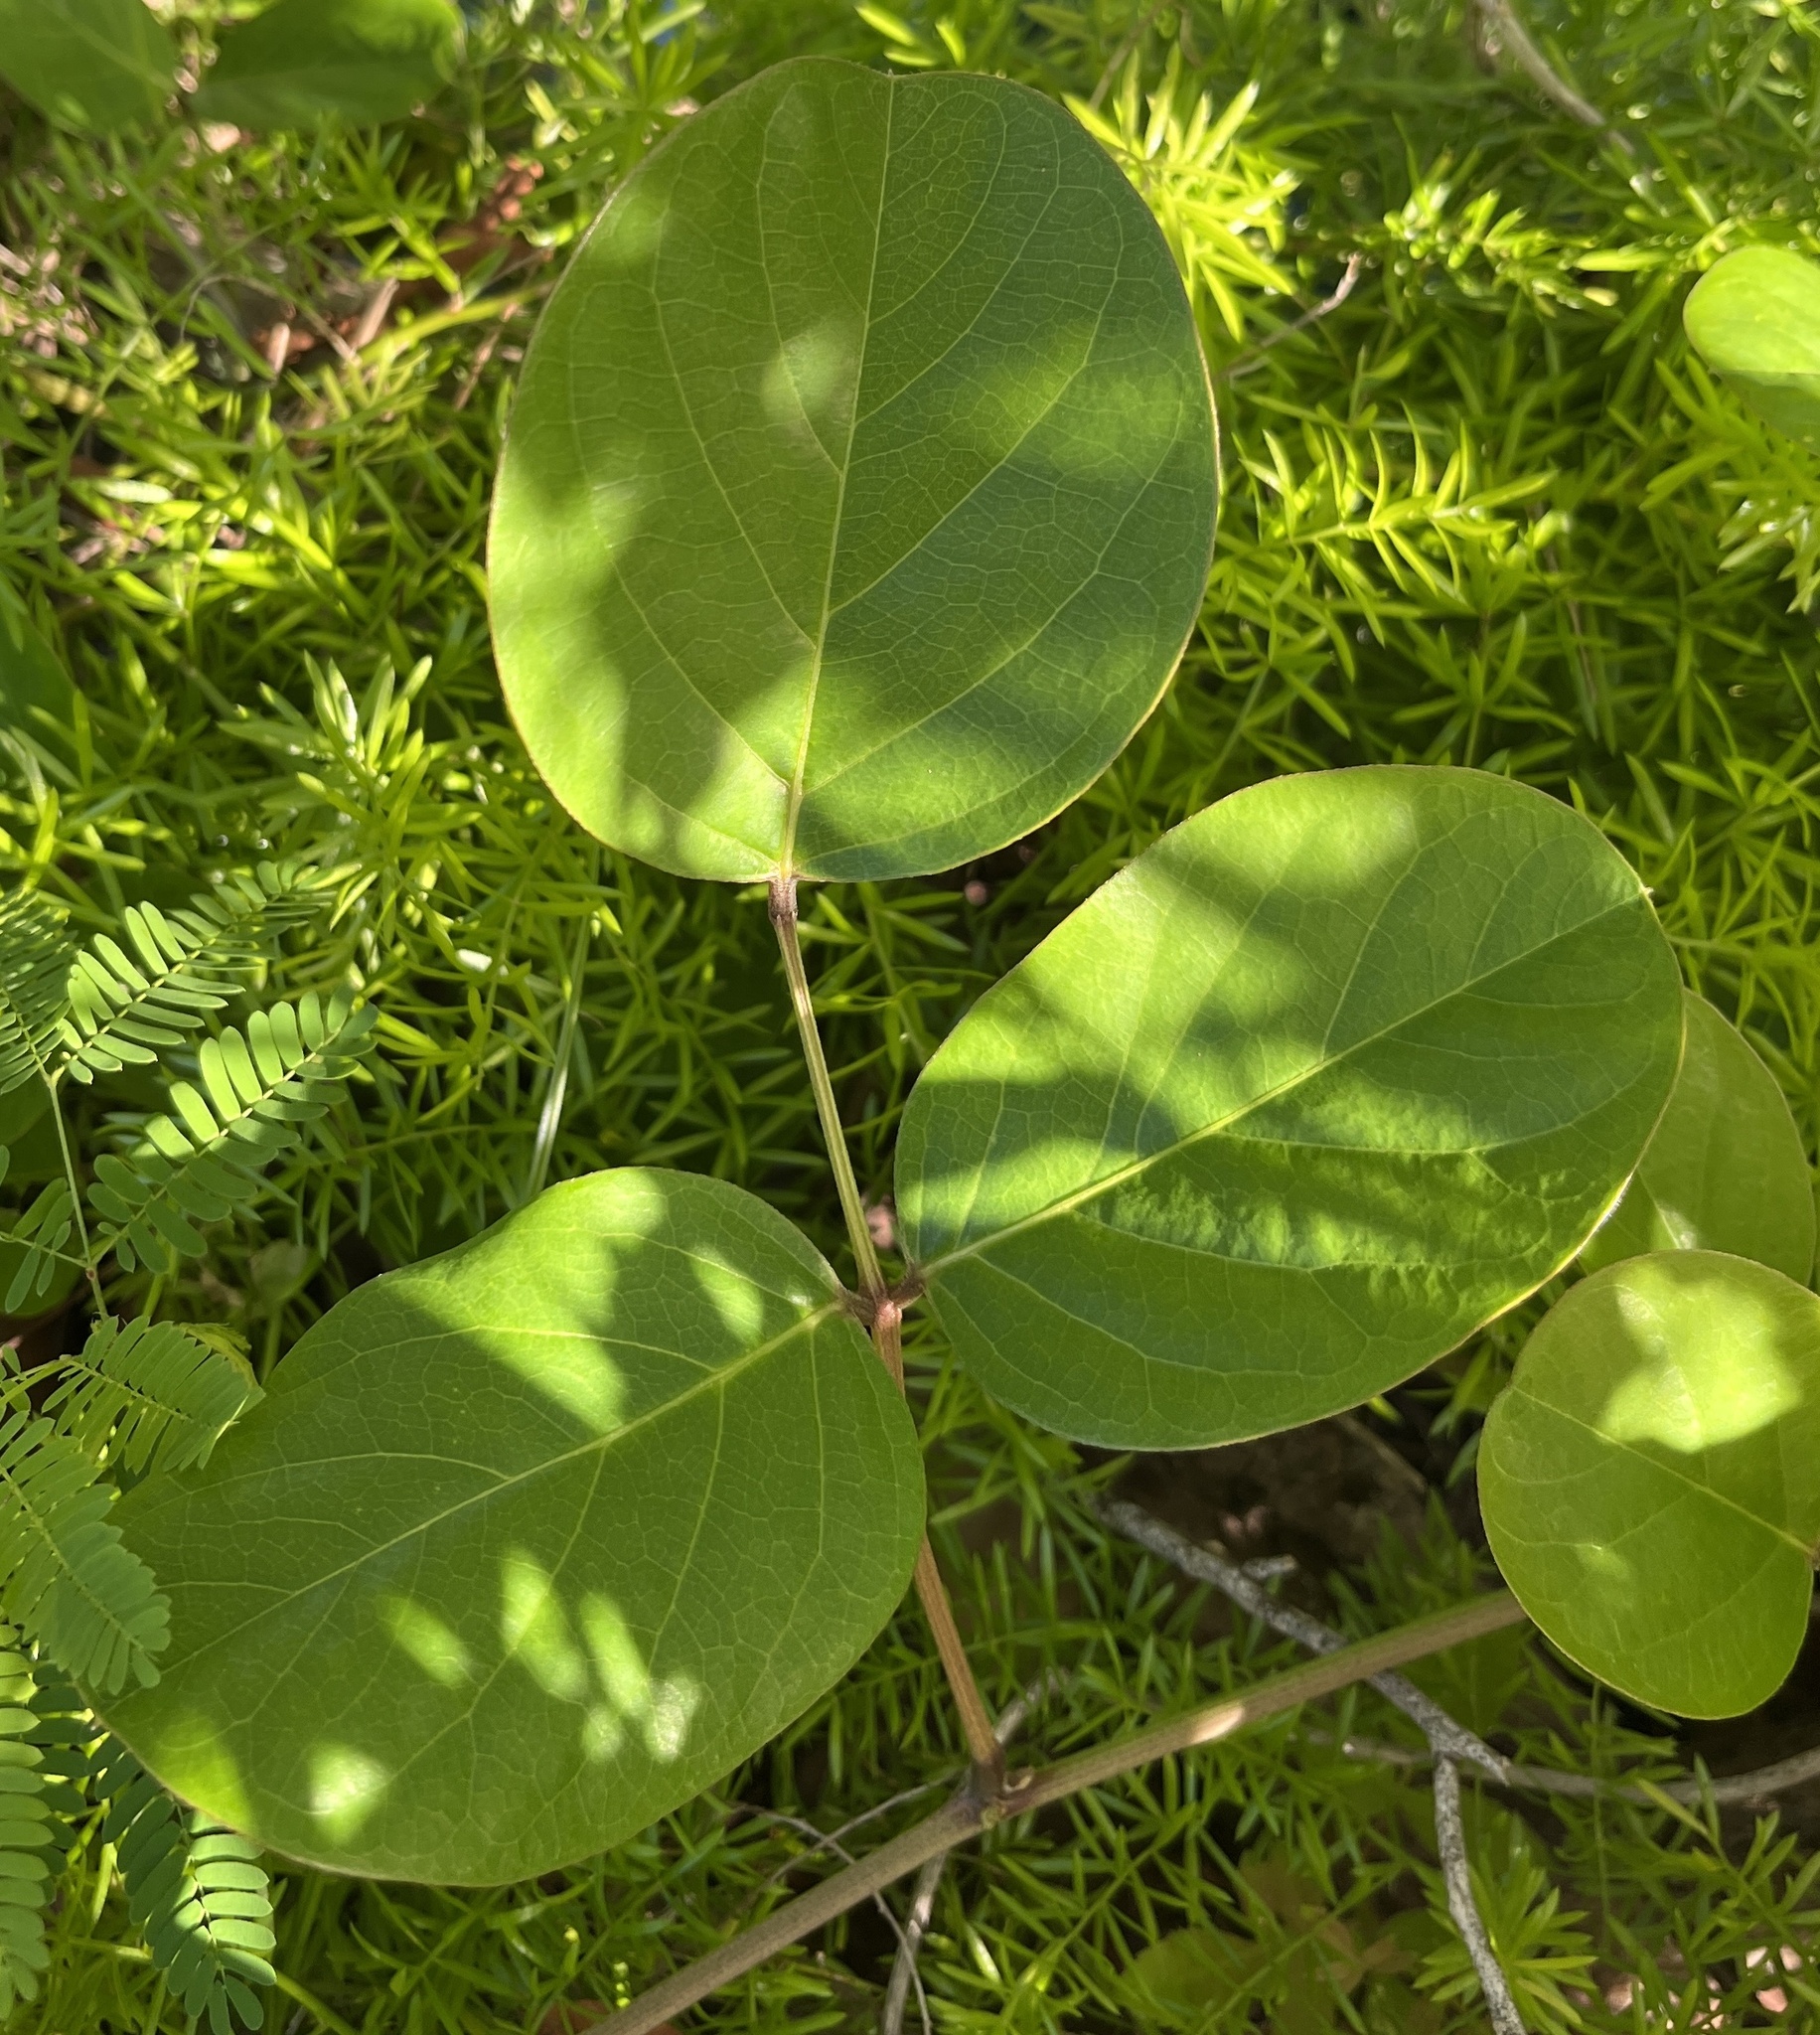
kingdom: Plantae
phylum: Tracheophyta
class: Magnoliopsida
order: Fabales
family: Fabaceae
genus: Canavalia
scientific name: Canavalia rosea
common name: Beach-bean
